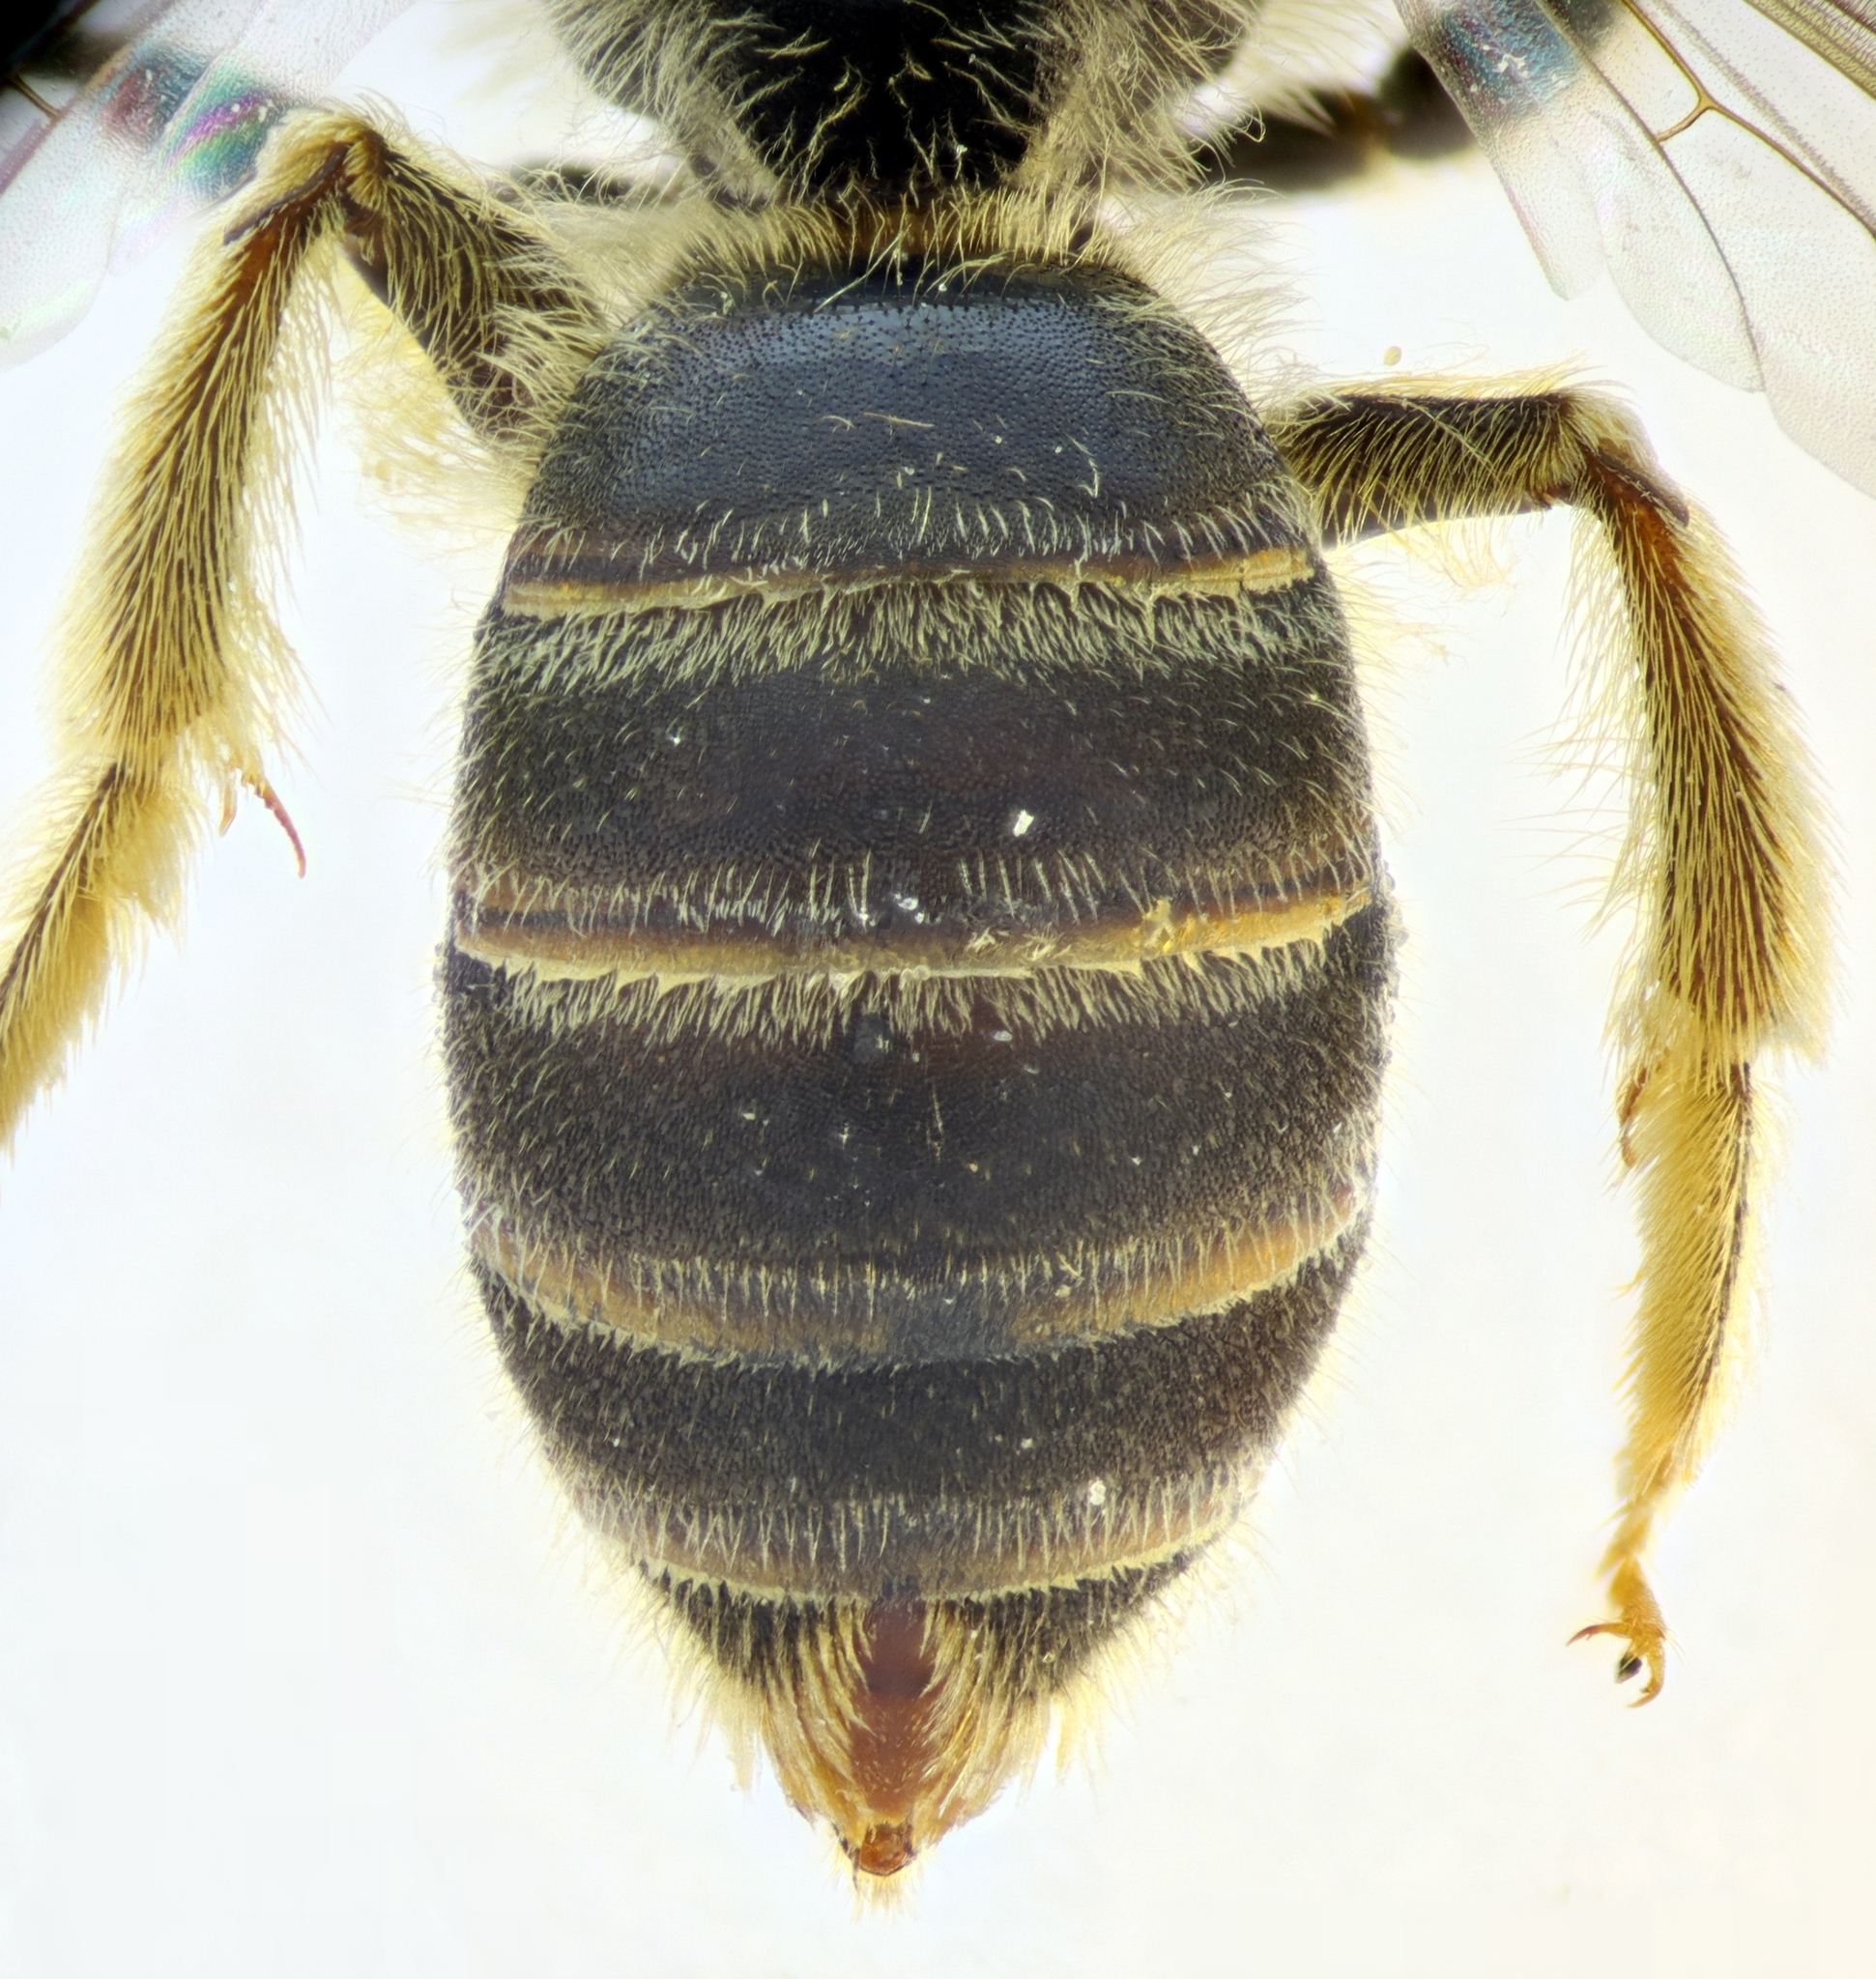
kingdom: Animalia
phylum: Arthropoda
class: Insecta
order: Hymenoptera
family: Halictidae
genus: Halictus
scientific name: Halictus fulvipes
